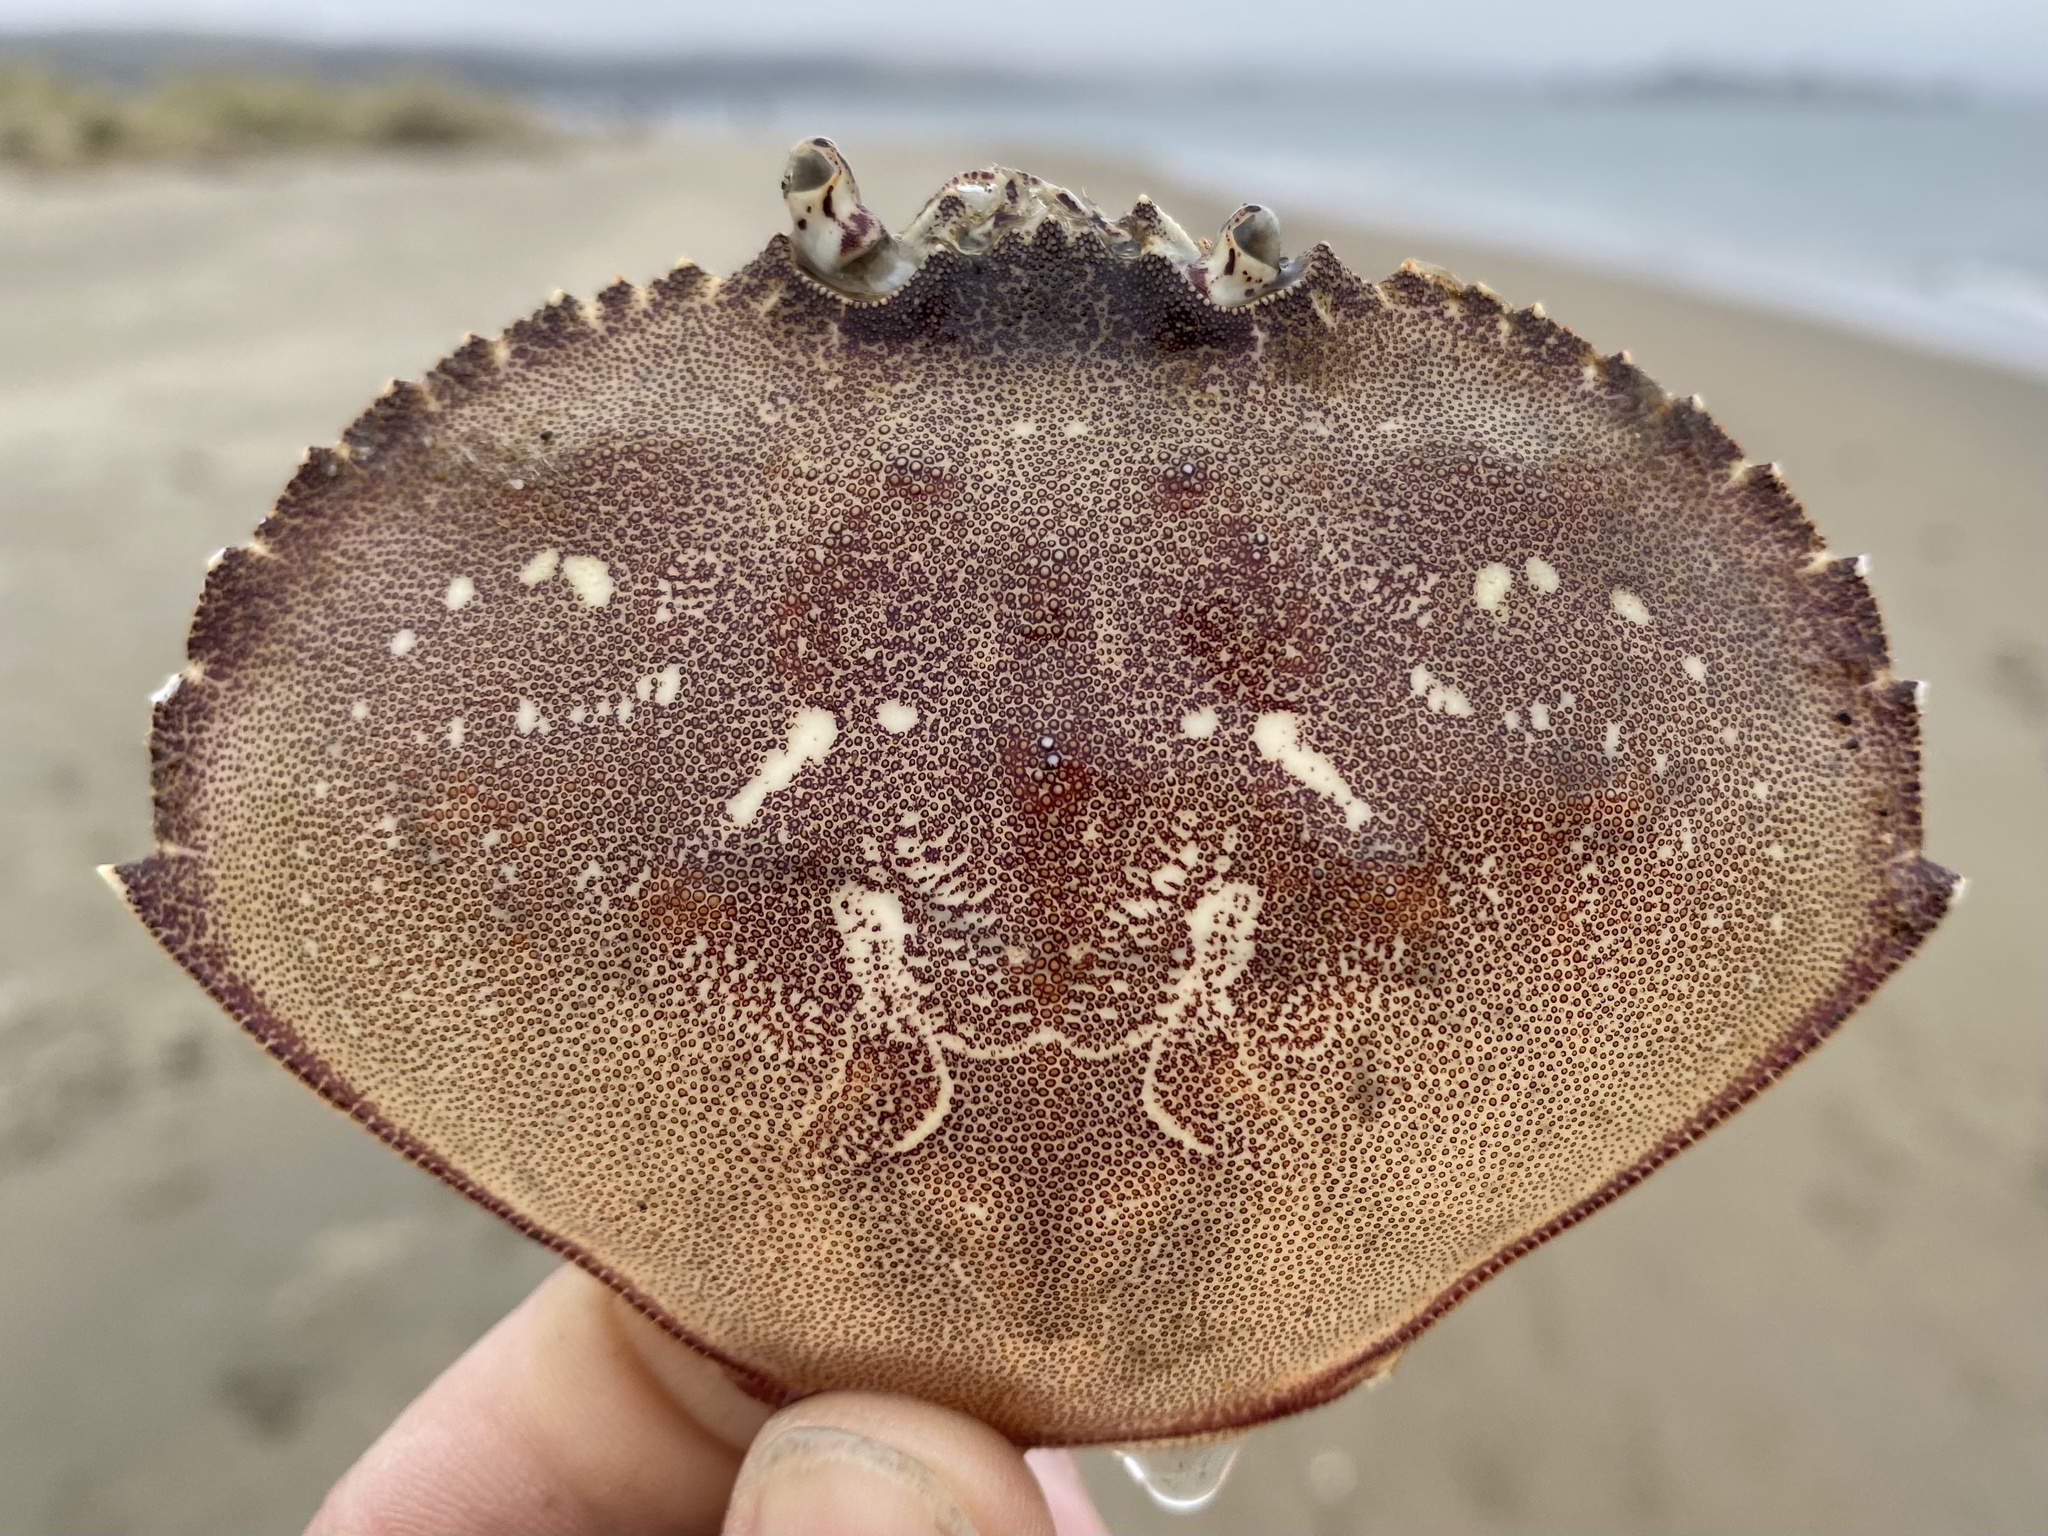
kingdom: Animalia
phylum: Arthropoda
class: Malacostraca
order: Decapoda
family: Cancridae
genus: Metacarcinus
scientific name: Metacarcinus magister
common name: Californian crab
